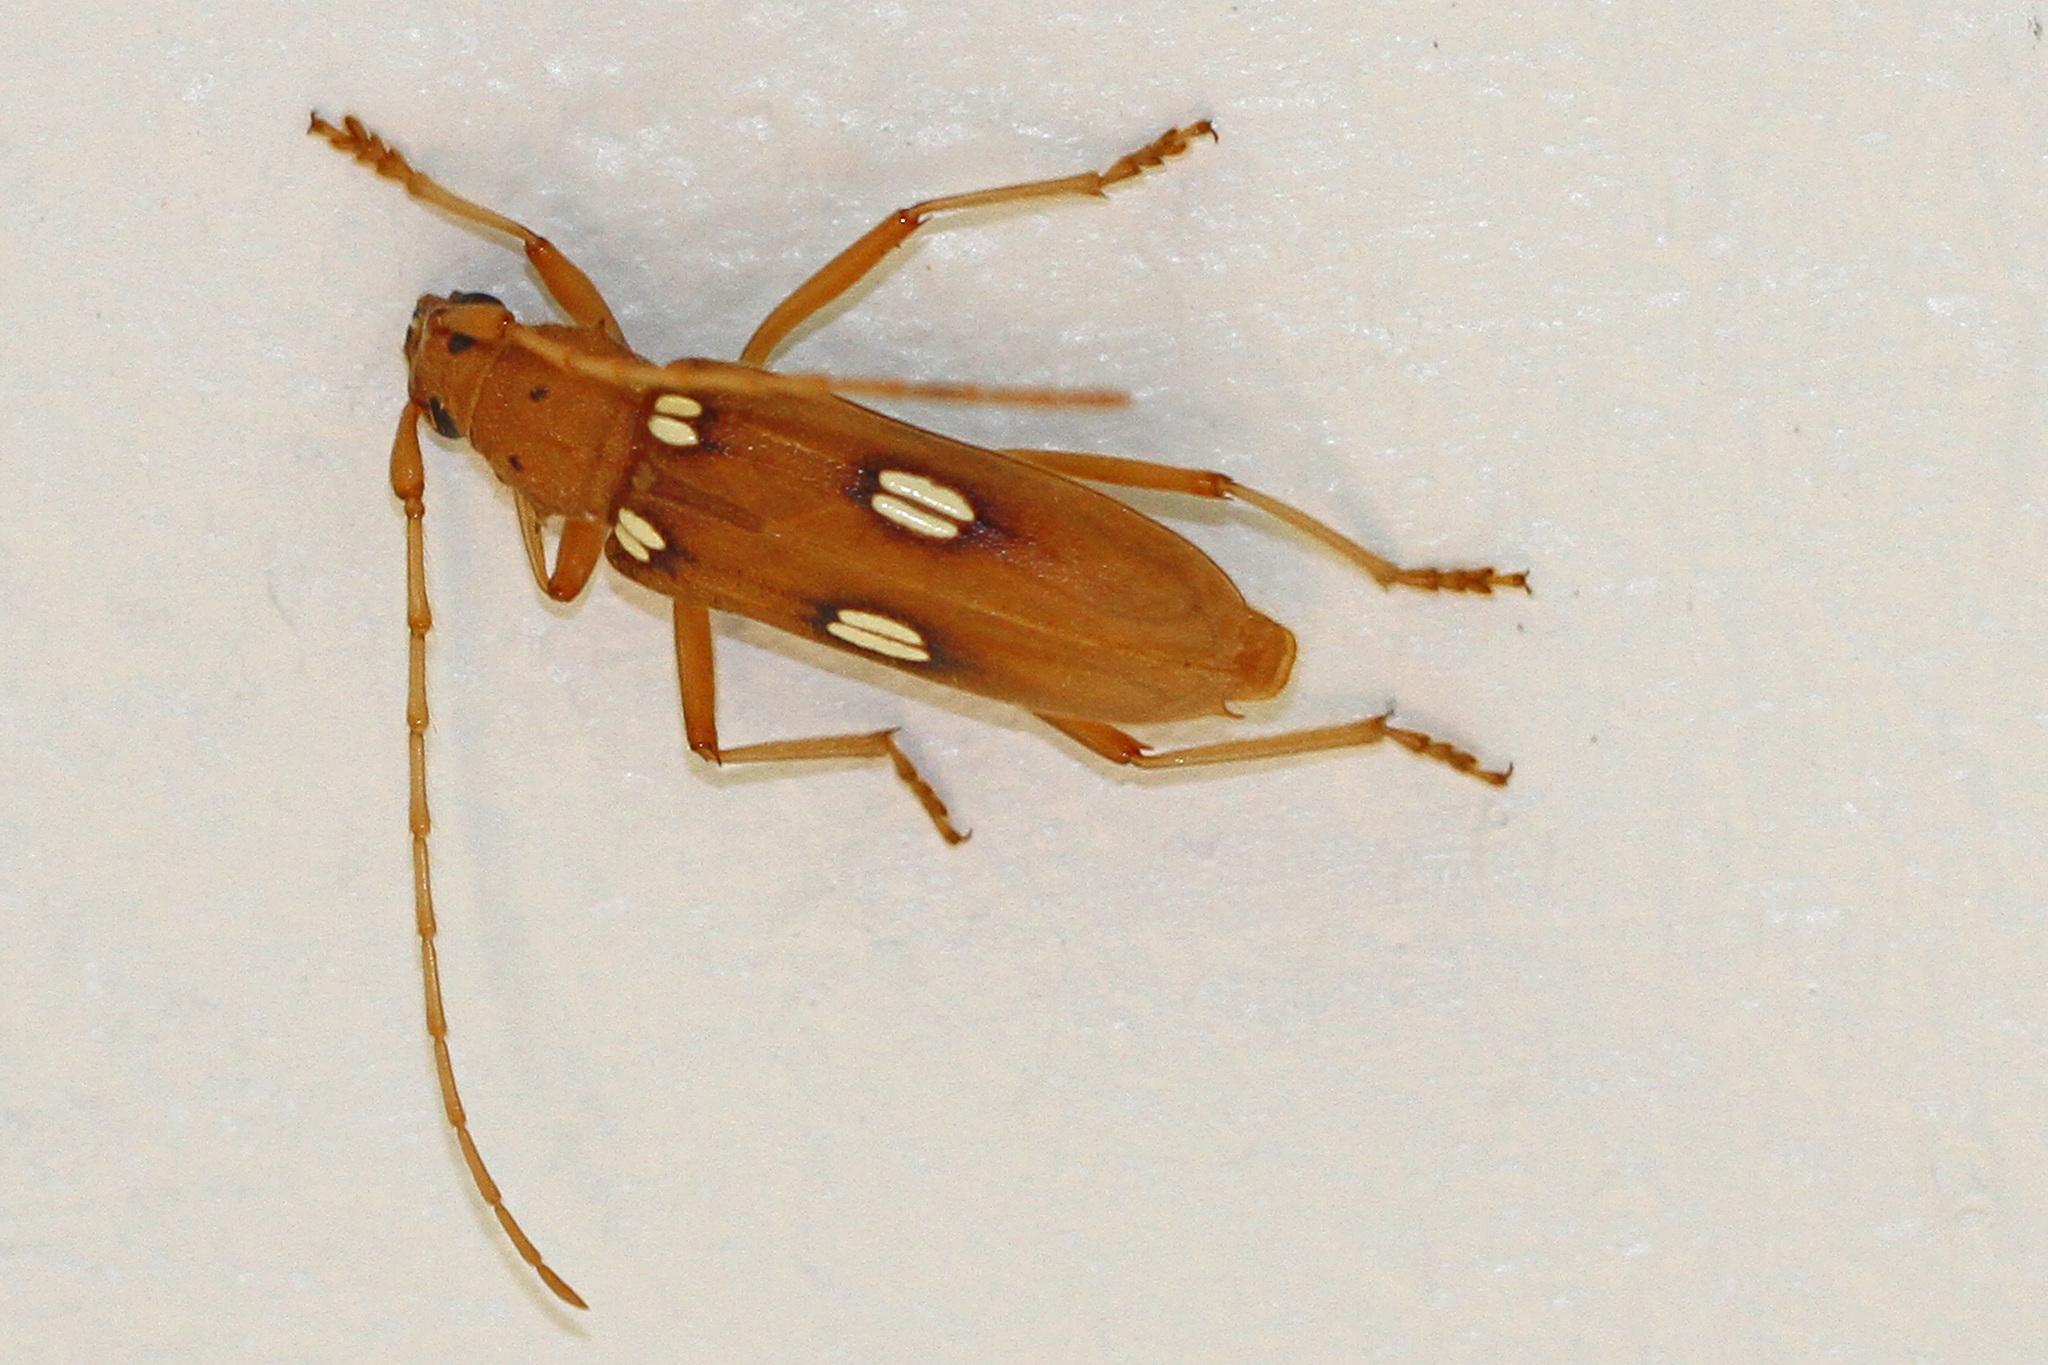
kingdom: Animalia
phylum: Arthropoda
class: Insecta
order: Coleoptera
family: Cerambycidae
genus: Eburia
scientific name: Eburia quadrigeminata
